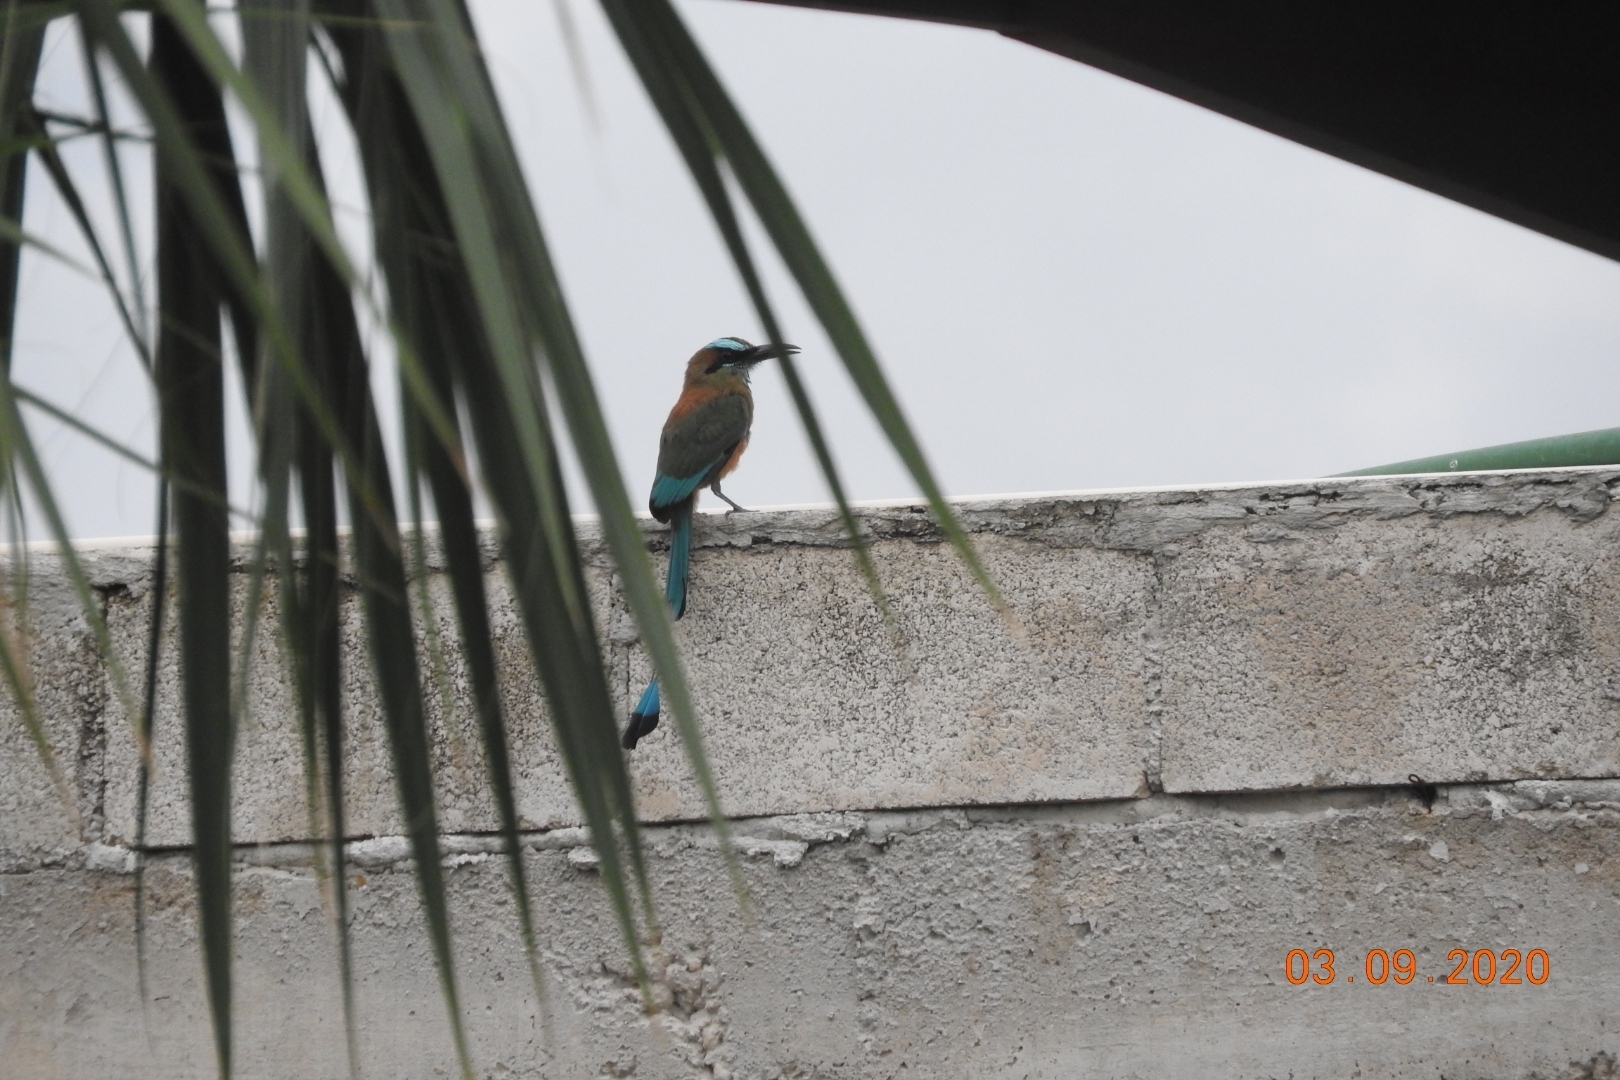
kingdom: Animalia
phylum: Chordata
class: Aves
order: Coraciiformes
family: Momotidae
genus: Eumomota
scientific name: Eumomota superciliosa
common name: Turquoise-browed motmot
